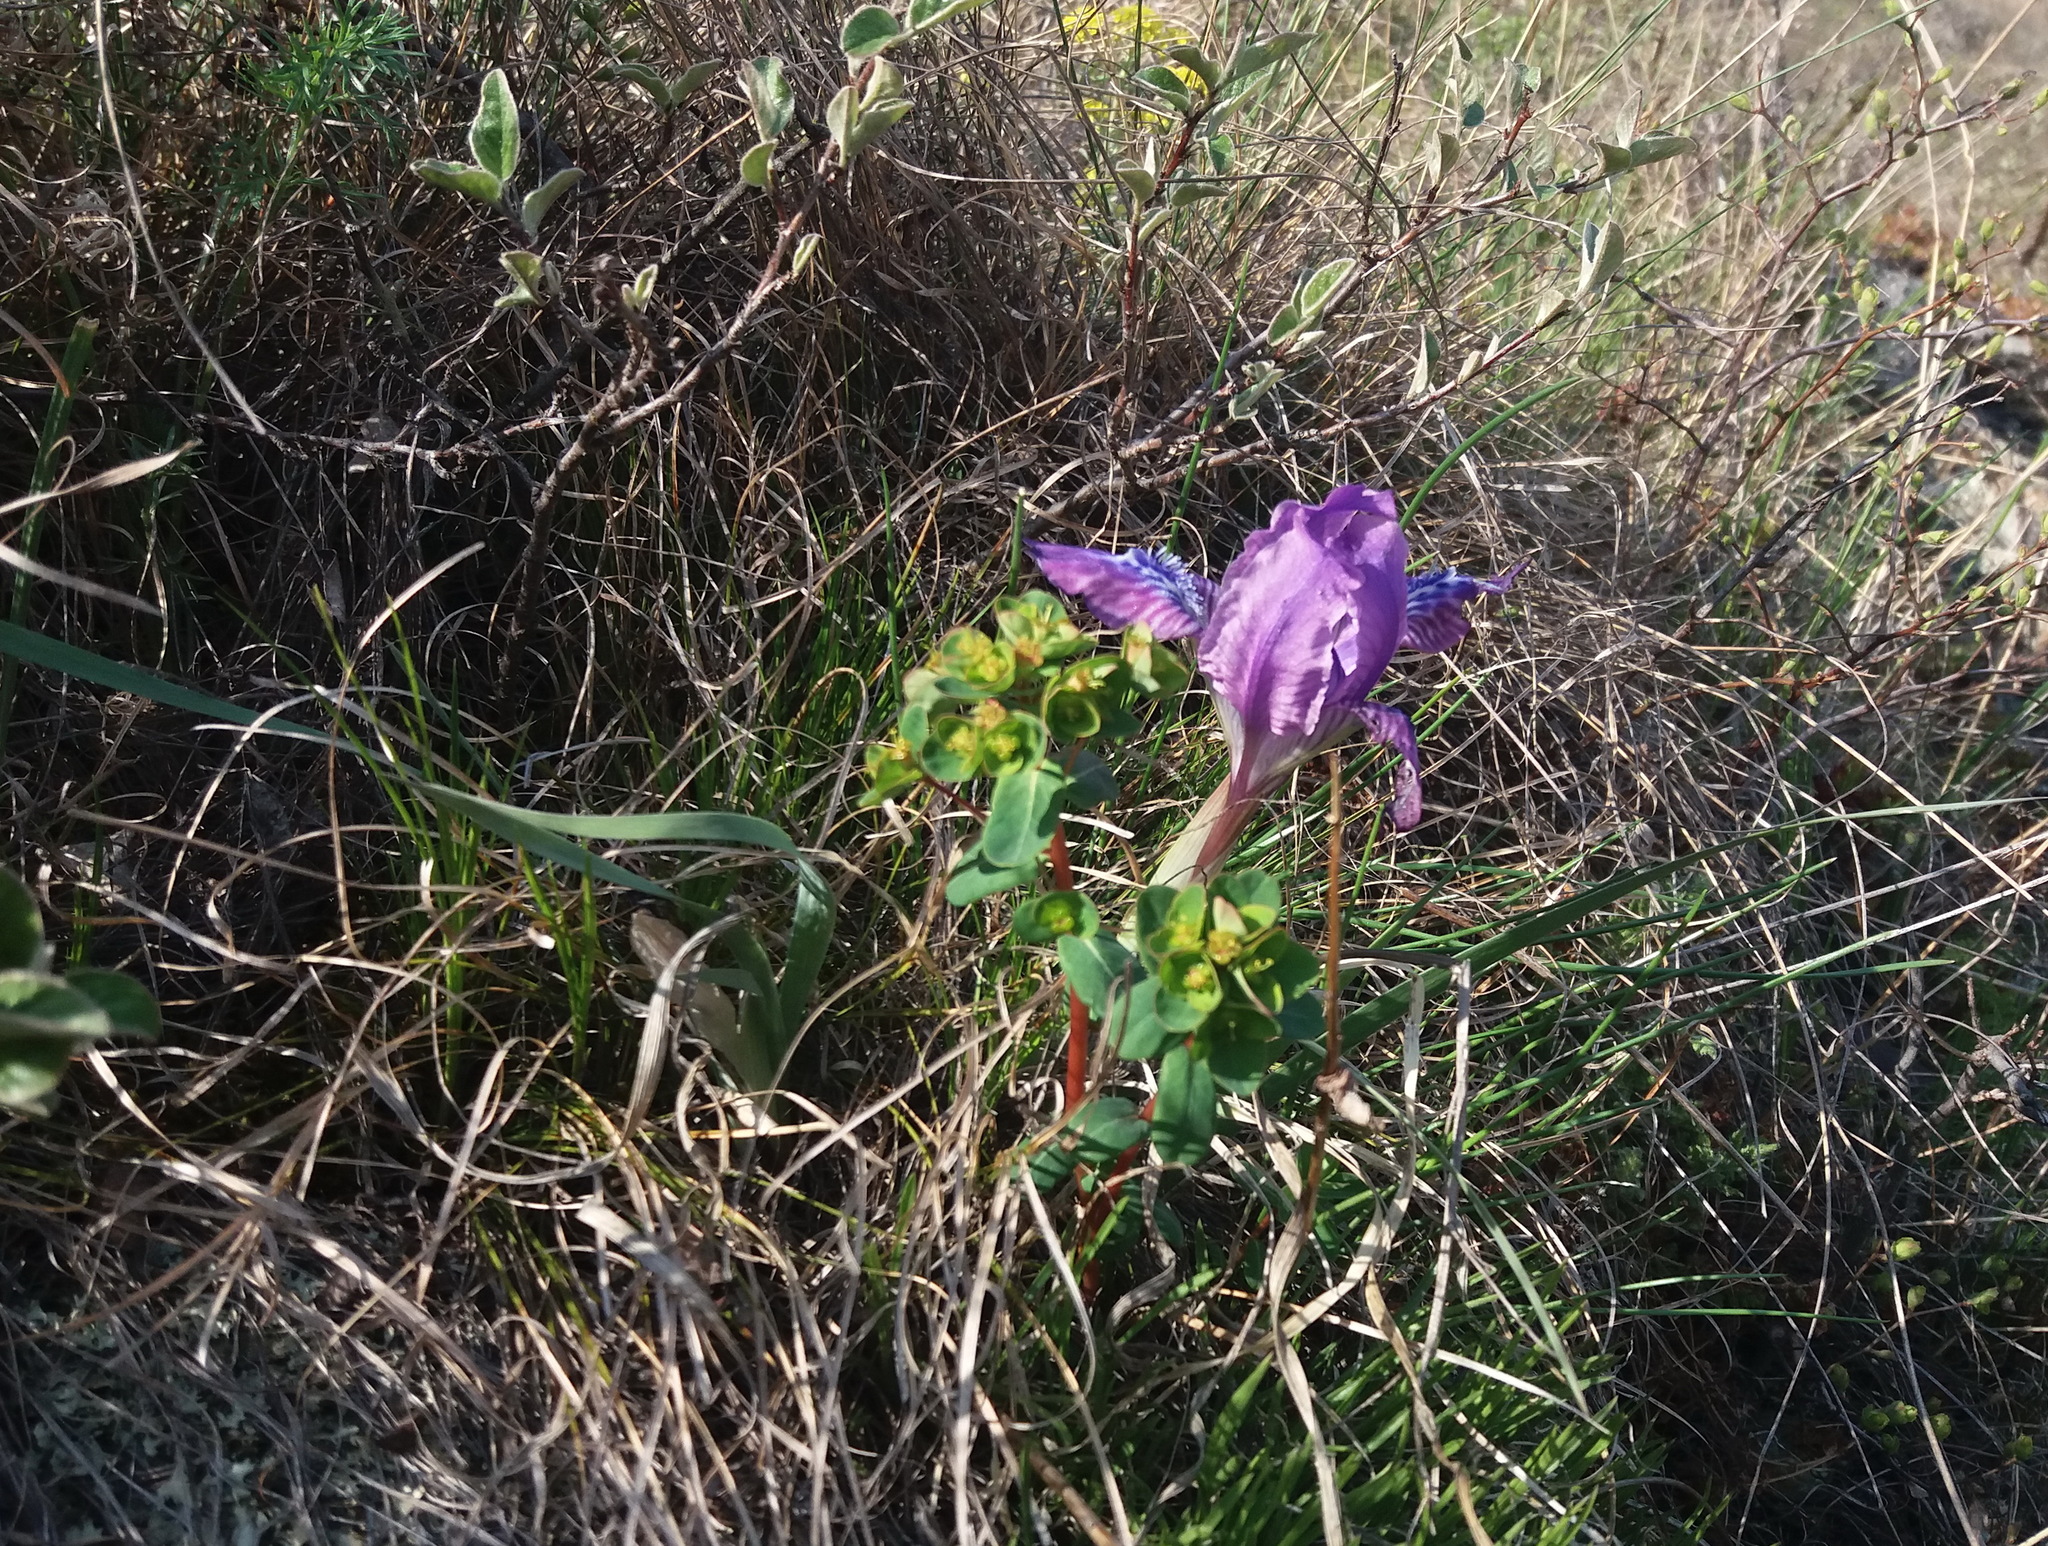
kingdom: Plantae
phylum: Tracheophyta
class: Liliopsida
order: Asparagales
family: Iridaceae
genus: Iris
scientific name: Iris tigridia
